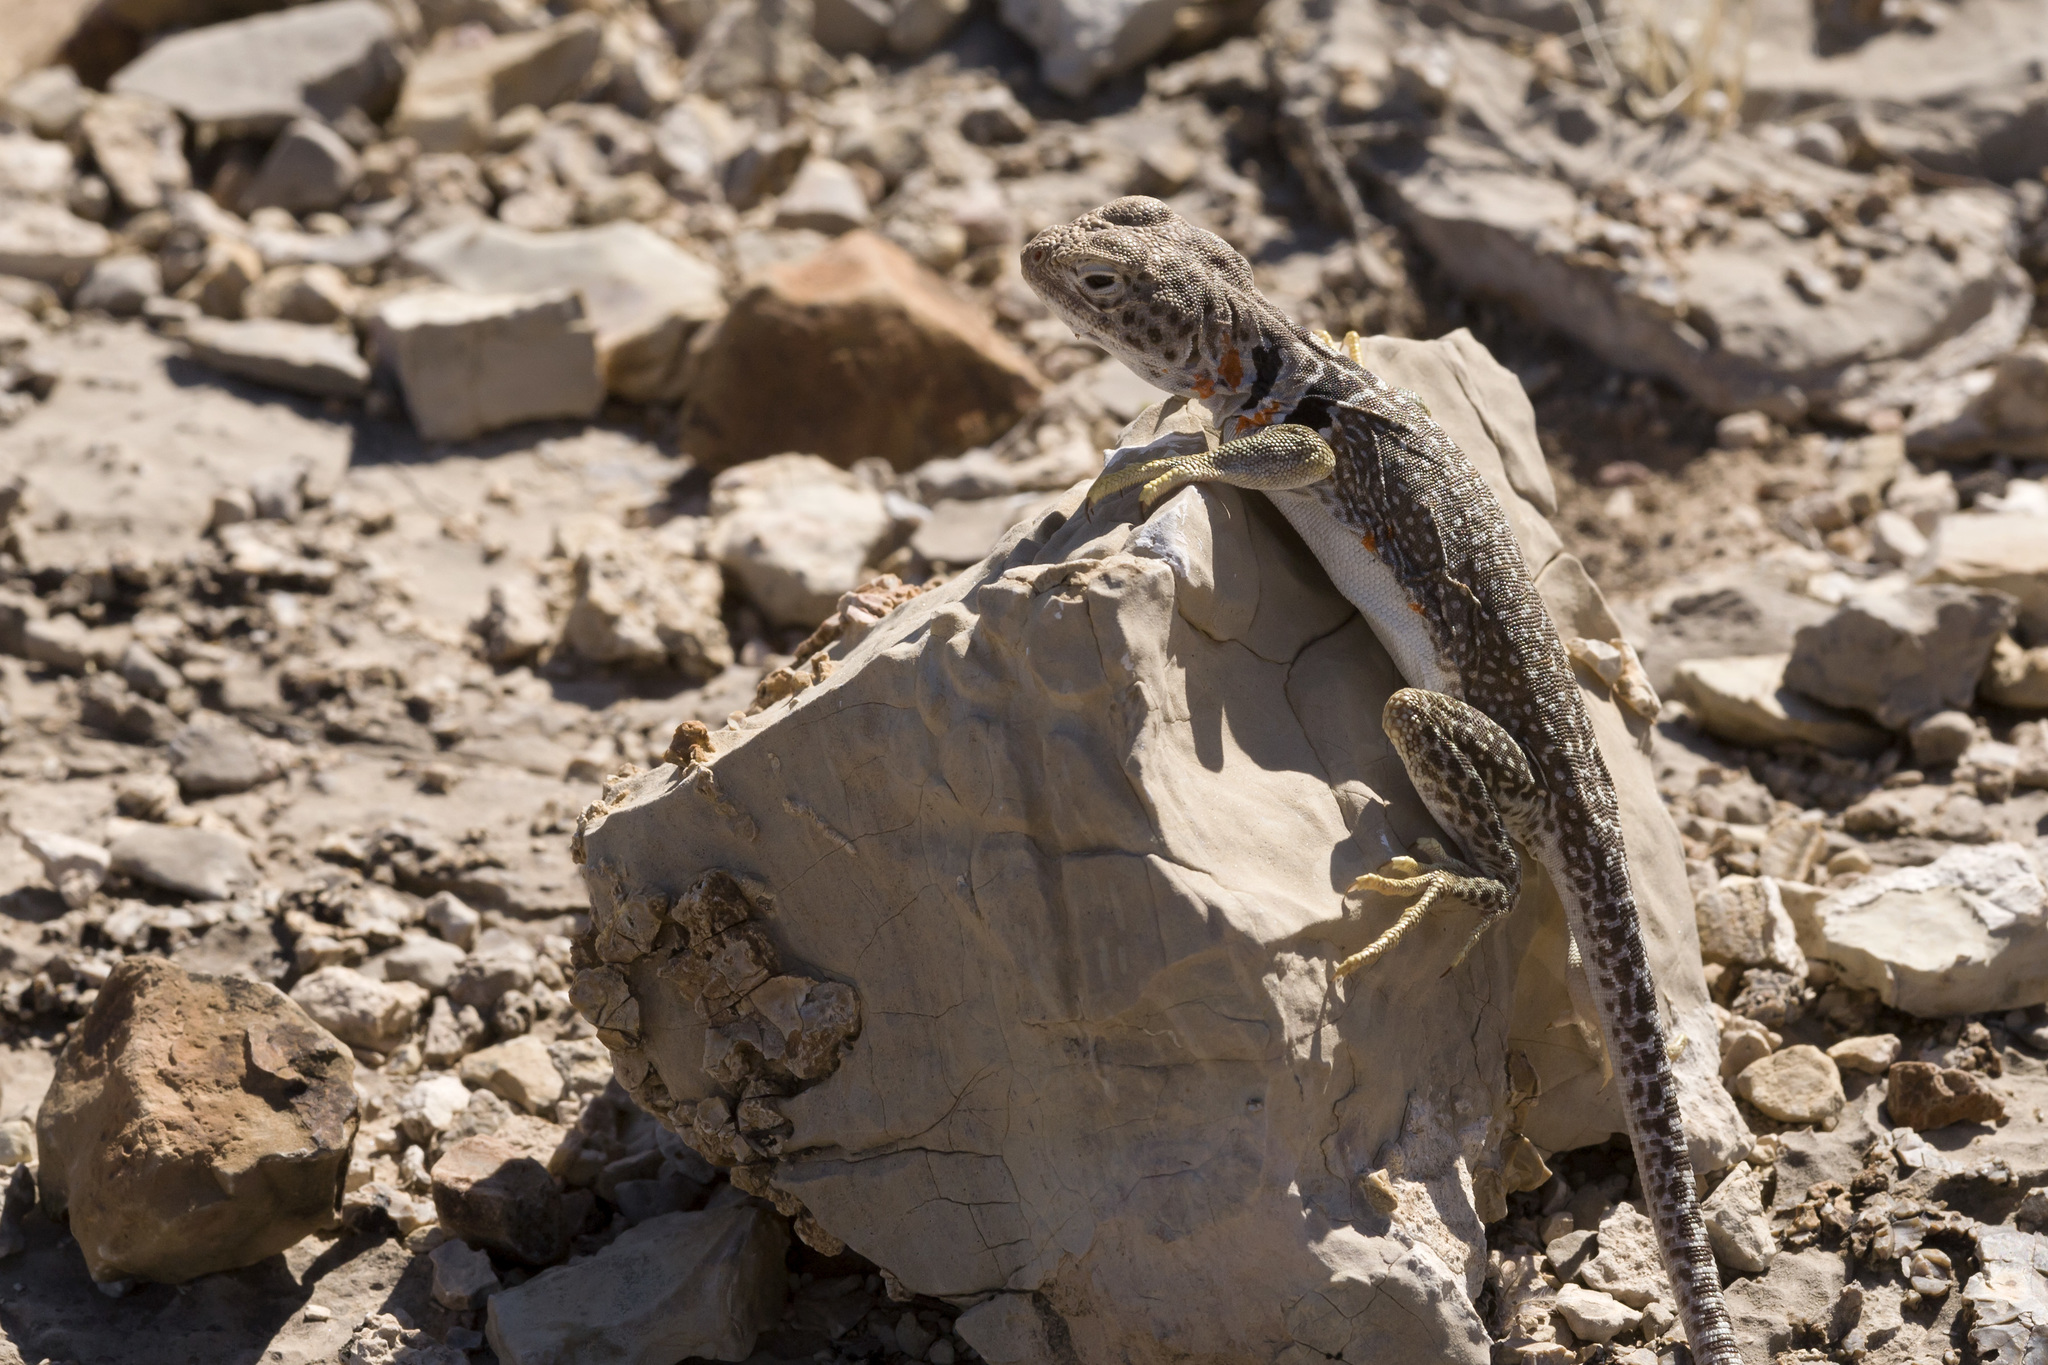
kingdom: Animalia
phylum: Chordata
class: Squamata
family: Crotaphytidae
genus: Crotaphytus
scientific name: Crotaphytus collaris
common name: Collared lizard
